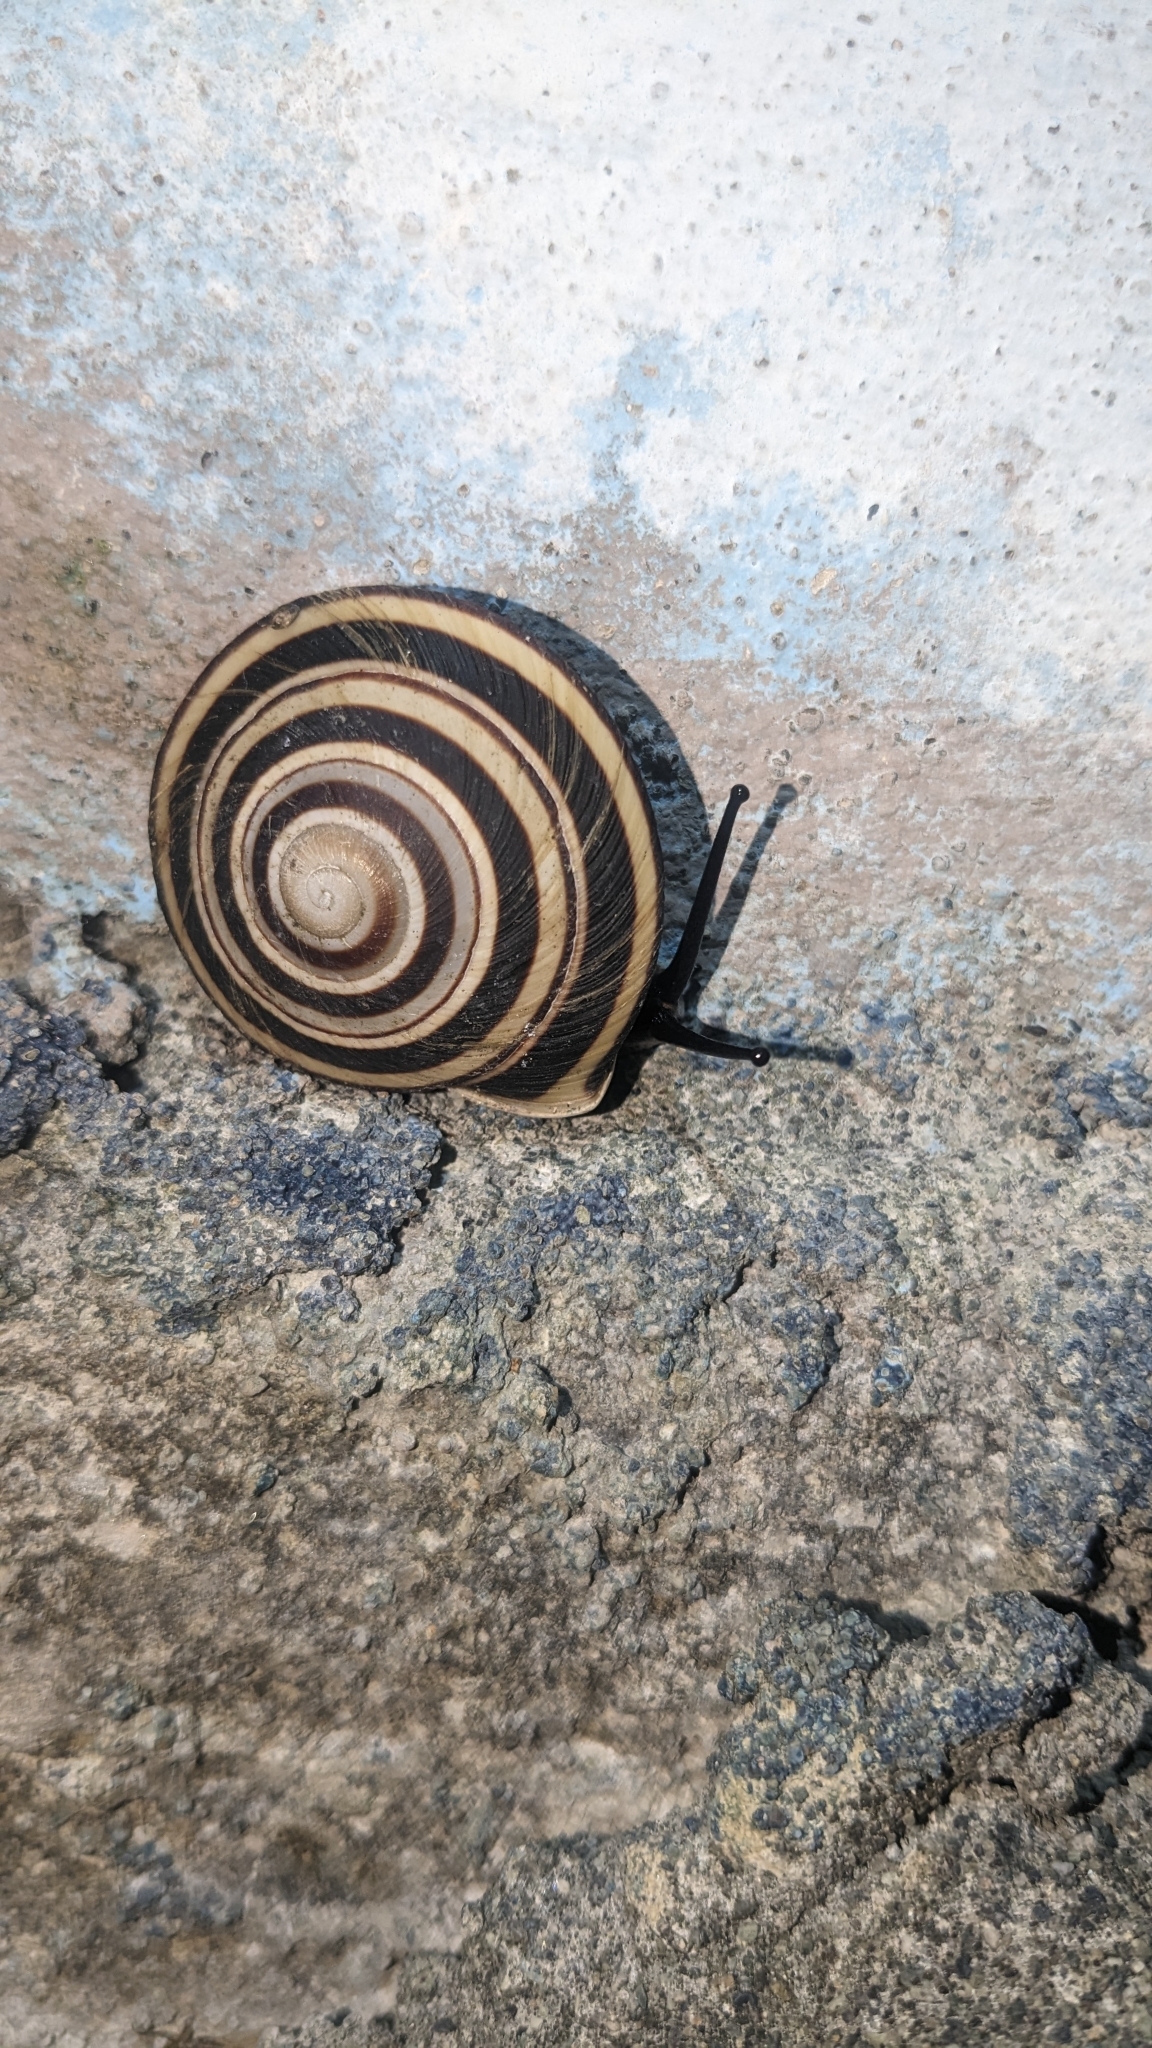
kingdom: Animalia
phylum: Mollusca
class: Gastropoda
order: Stylommatophora
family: Solaropsidae
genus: Caracolus
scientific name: Caracolus sagemon
